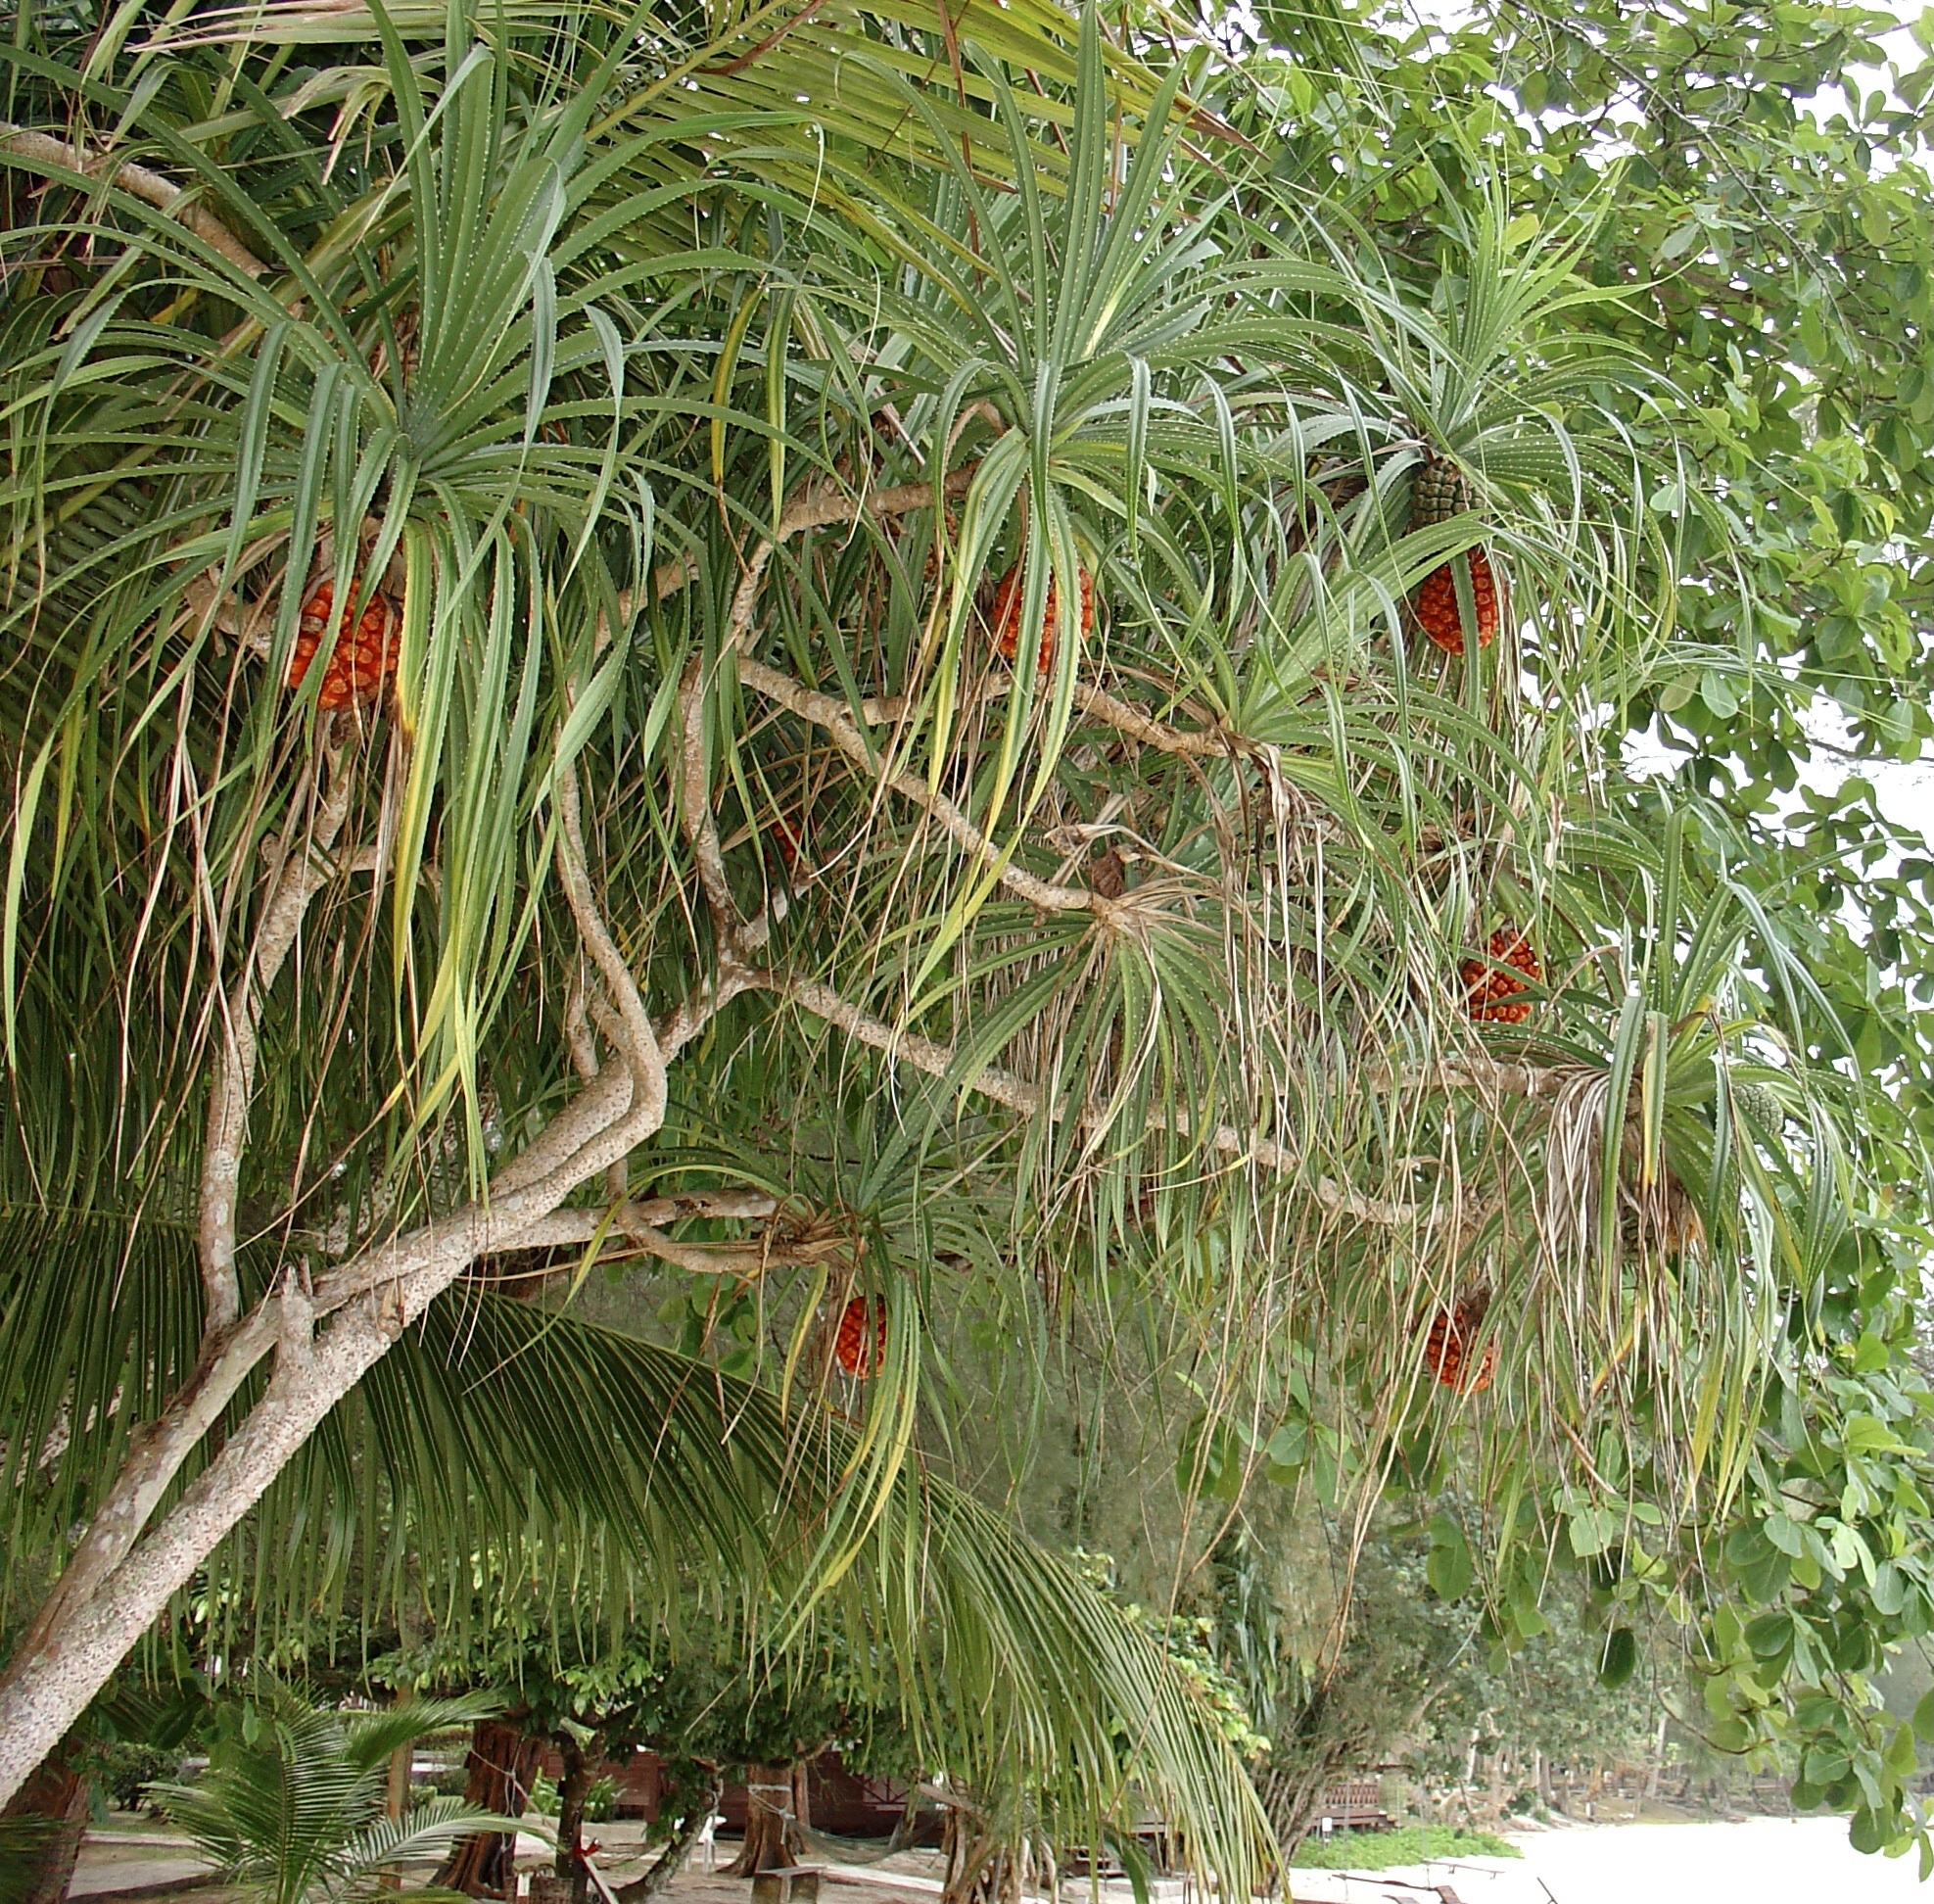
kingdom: Plantae
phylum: Tracheophyta
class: Liliopsida
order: Pandanales
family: Pandanaceae
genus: Pandanus
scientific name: Pandanus odorifer
